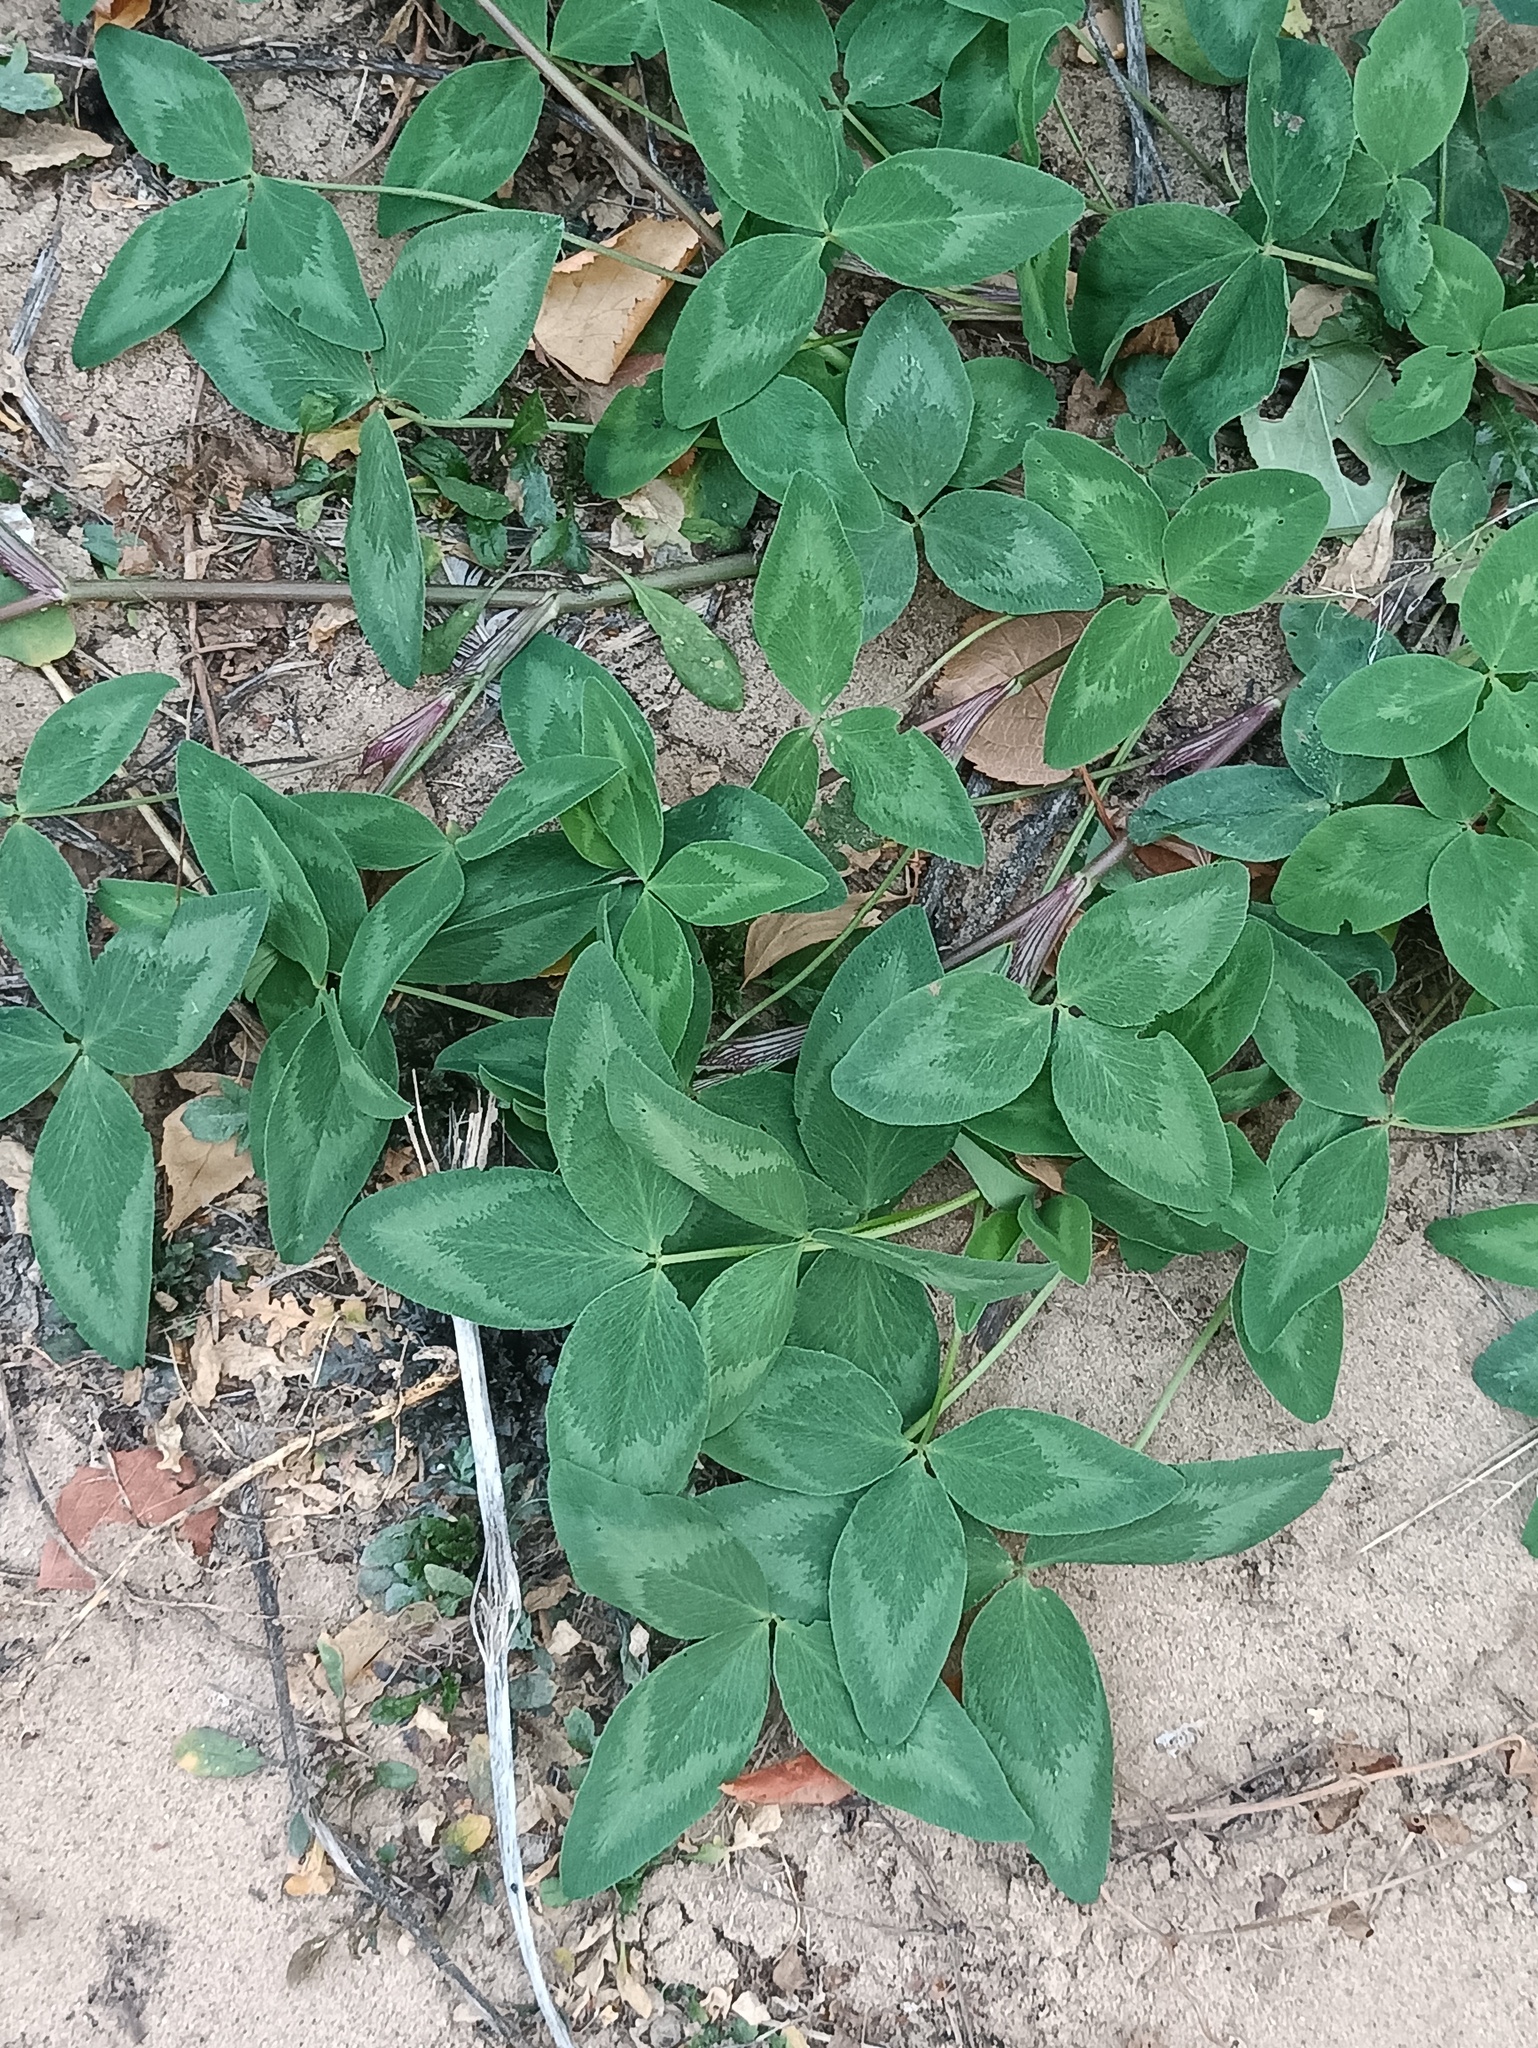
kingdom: Plantae
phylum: Tracheophyta
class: Magnoliopsida
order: Fabales
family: Fabaceae
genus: Trifolium
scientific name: Trifolium pratense
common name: Red clover
